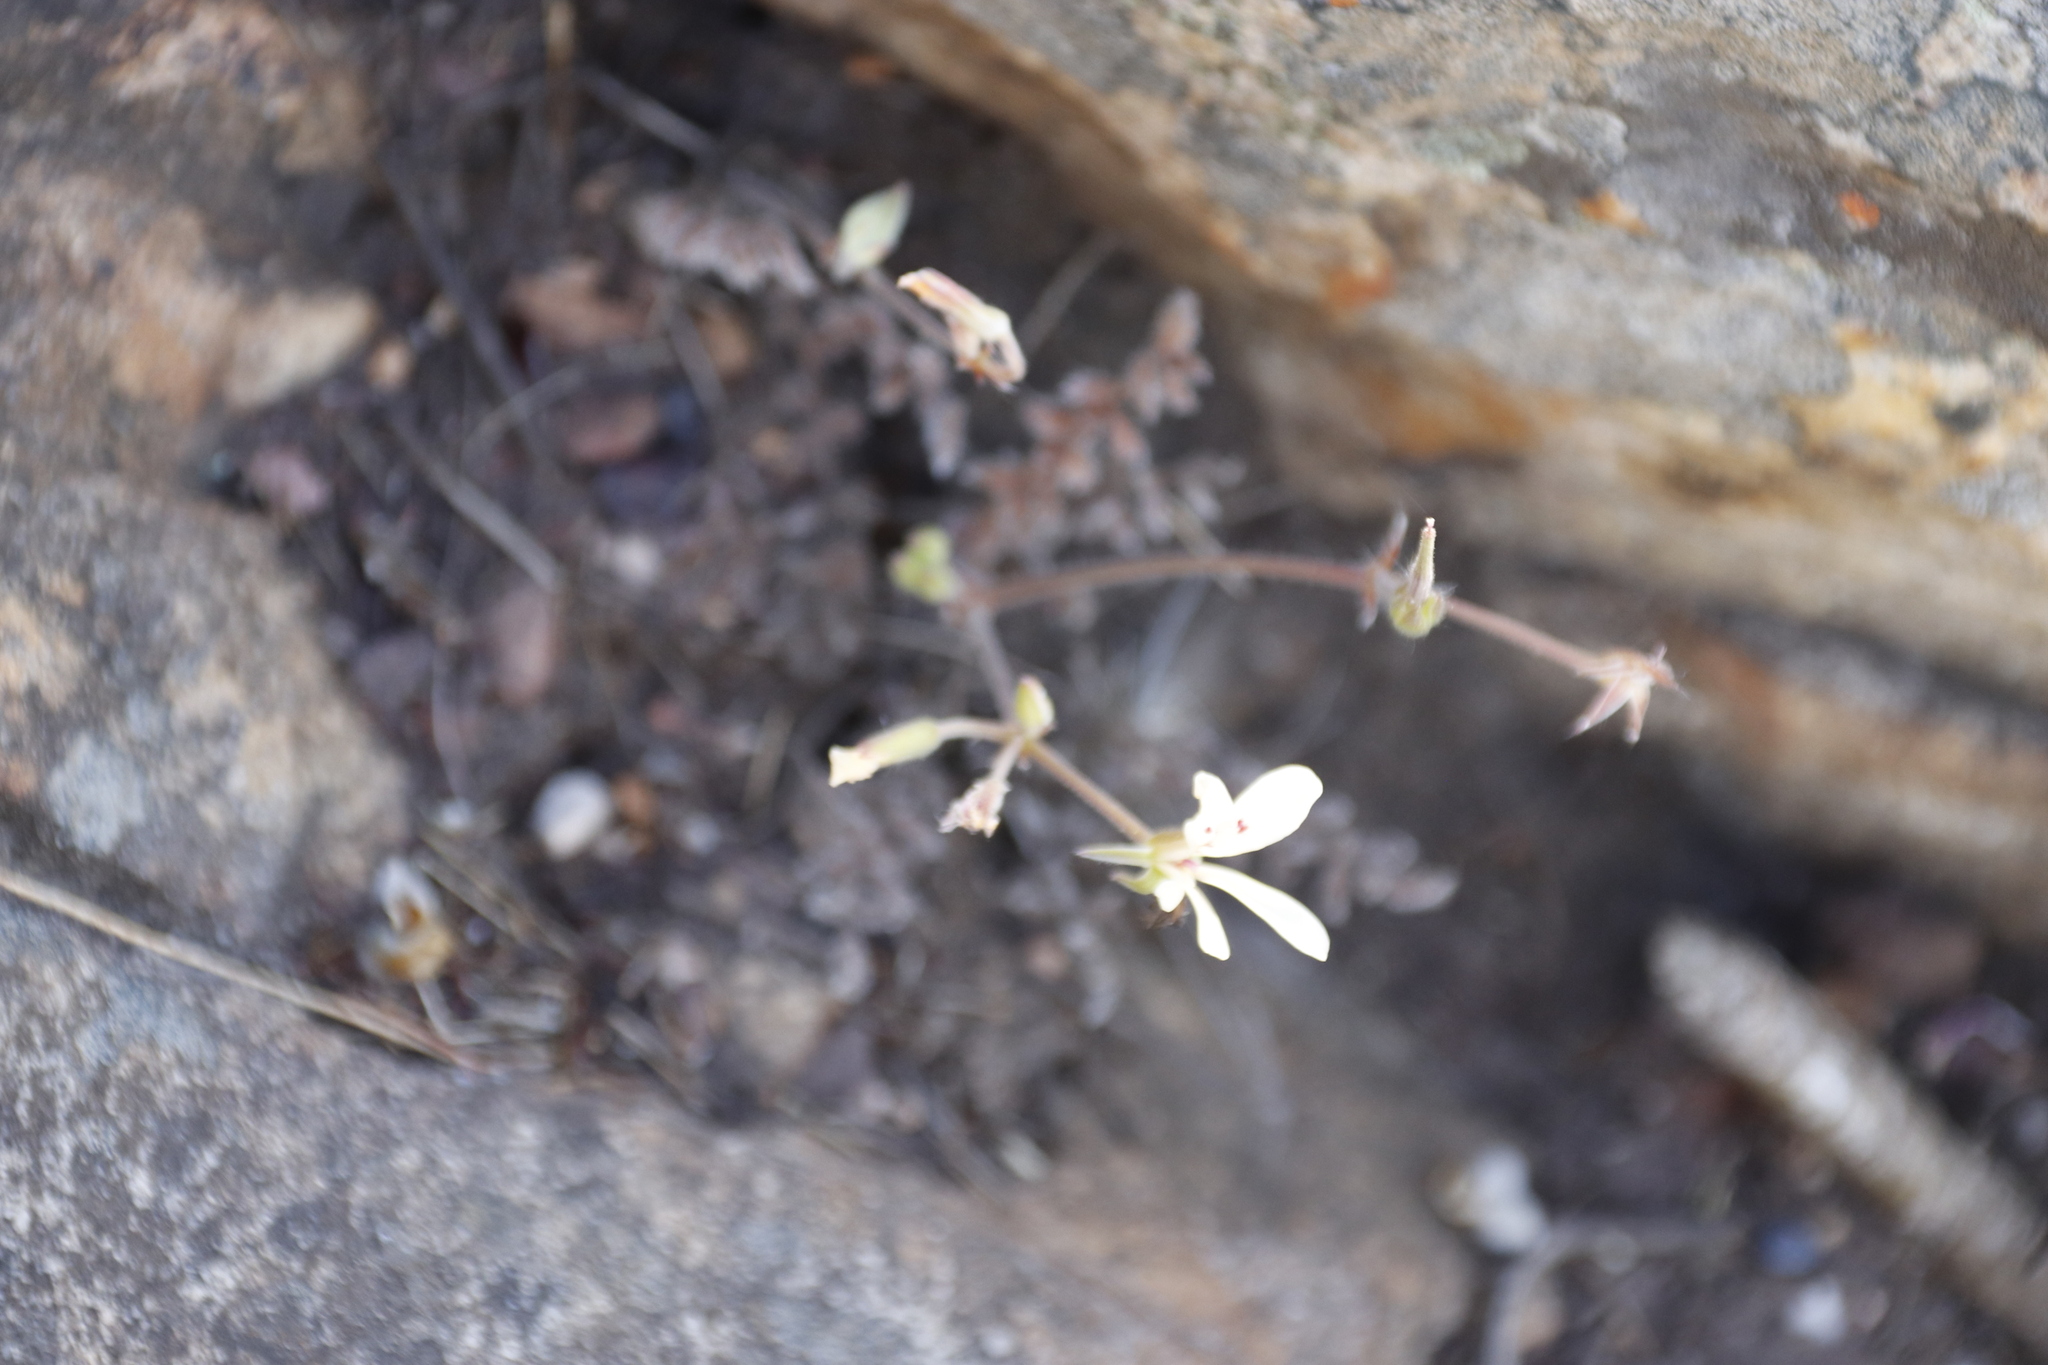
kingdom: Plantae
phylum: Tracheophyta
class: Magnoliopsida
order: Geraniales
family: Geraniaceae
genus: Pelargonium
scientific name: Pelargonium pinnatum
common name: Pinnated pelargonium
